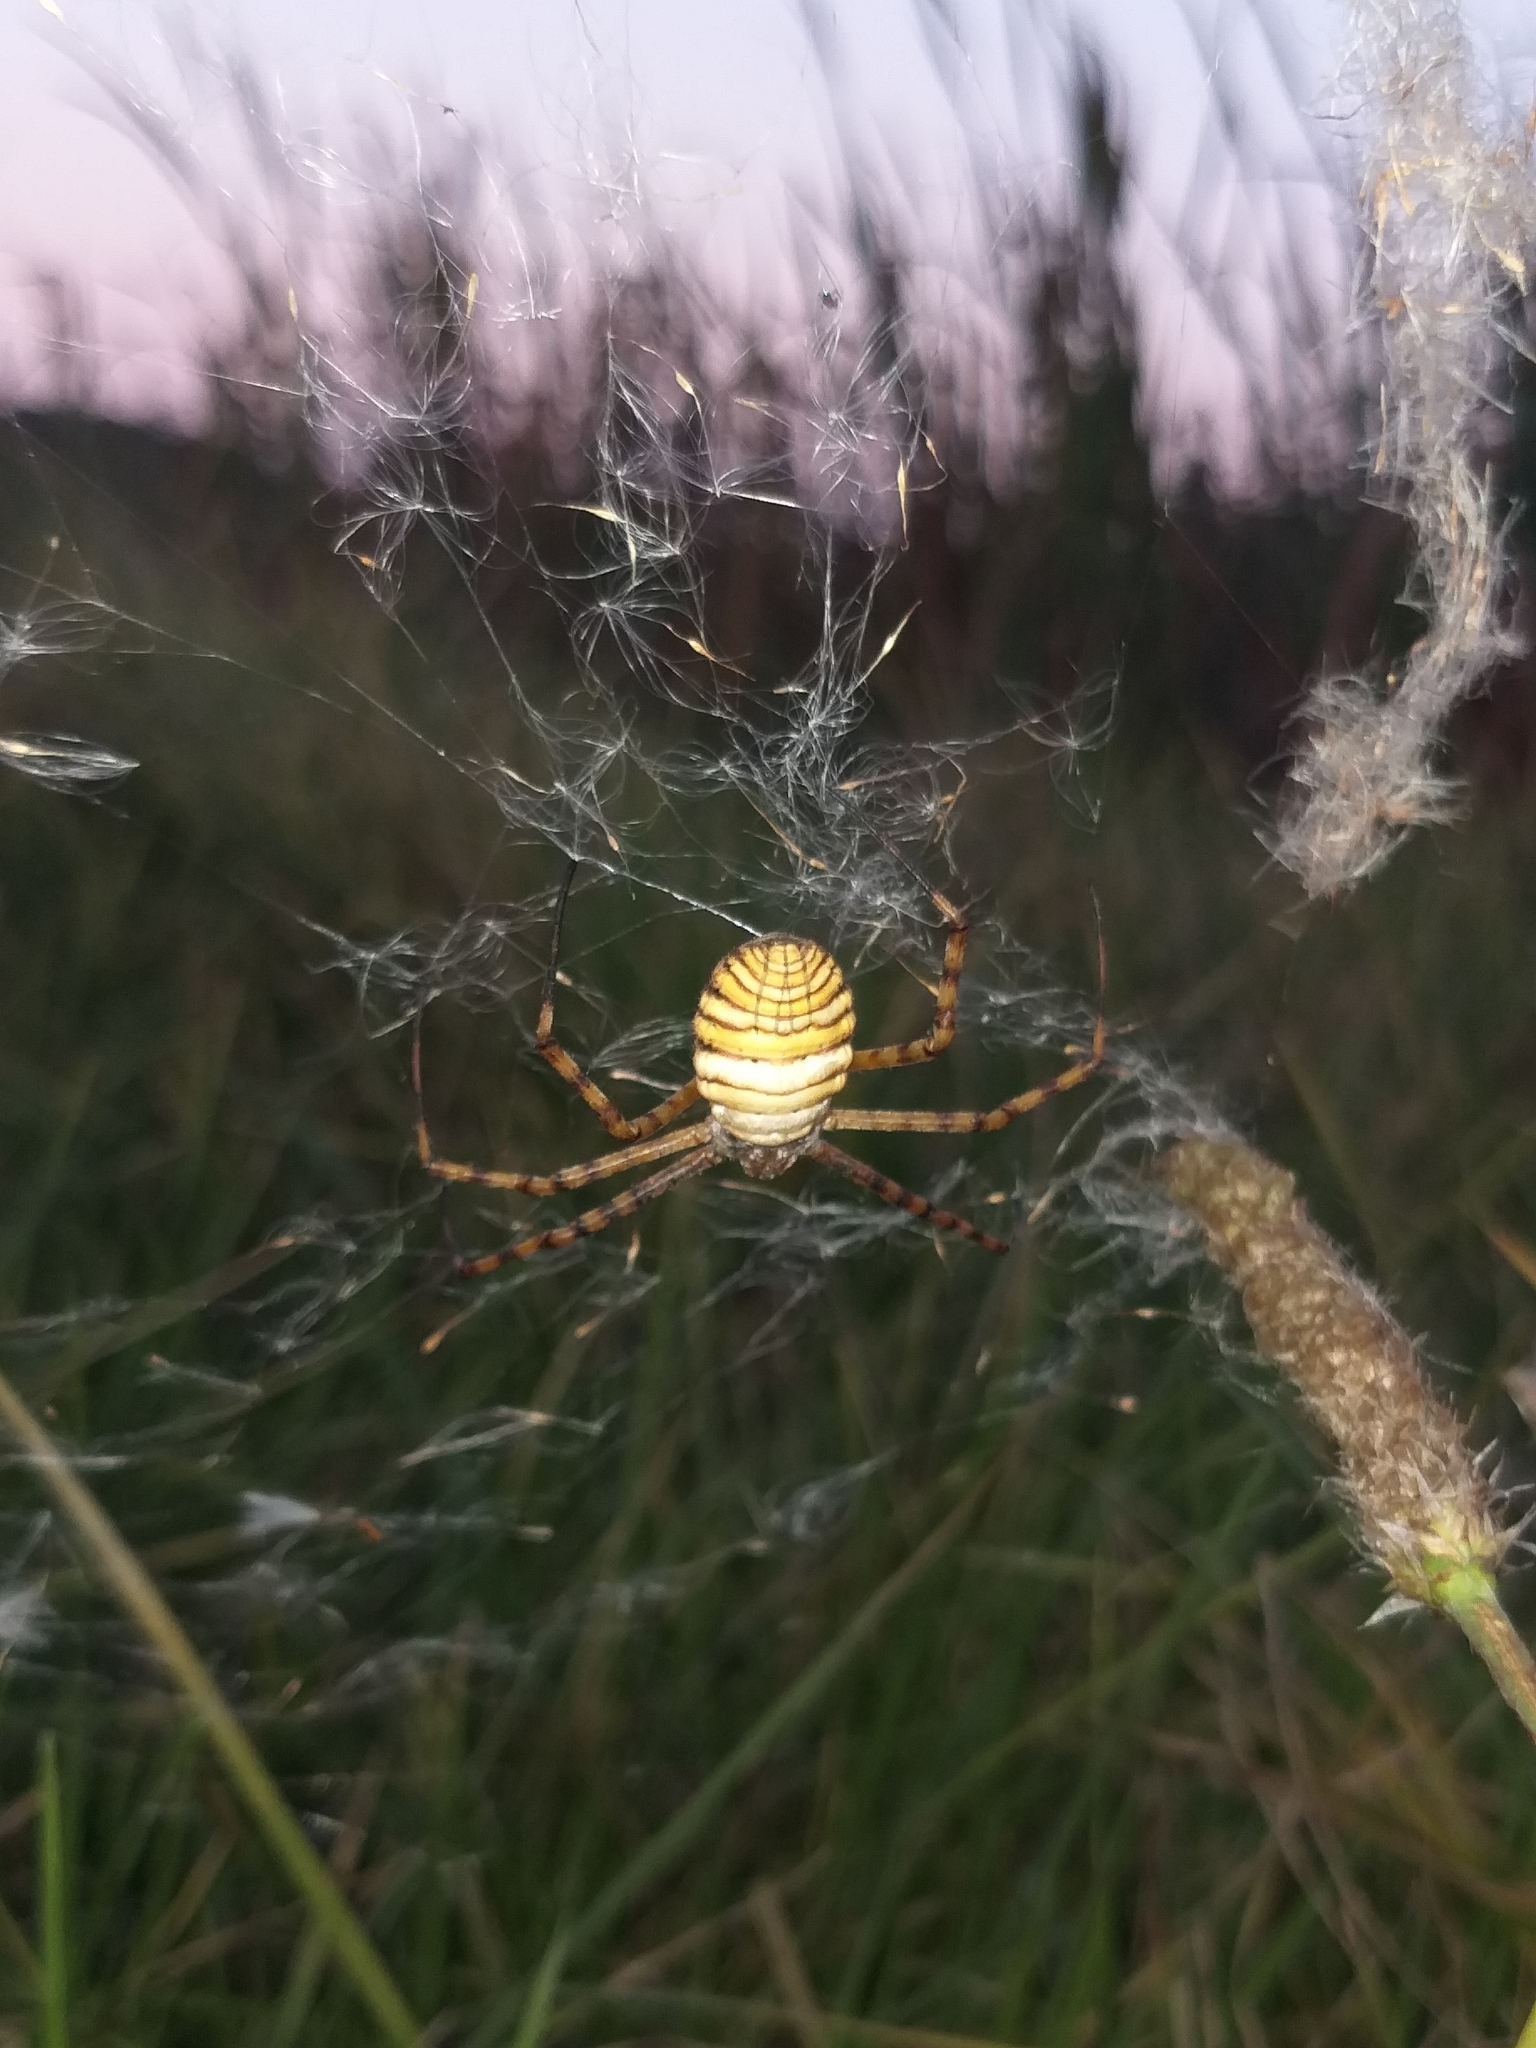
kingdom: Animalia
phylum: Arthropoda
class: Arachnida
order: Araneae
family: Araneidae
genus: Argiope
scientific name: Argiope trifasciata
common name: Banded garden spider
